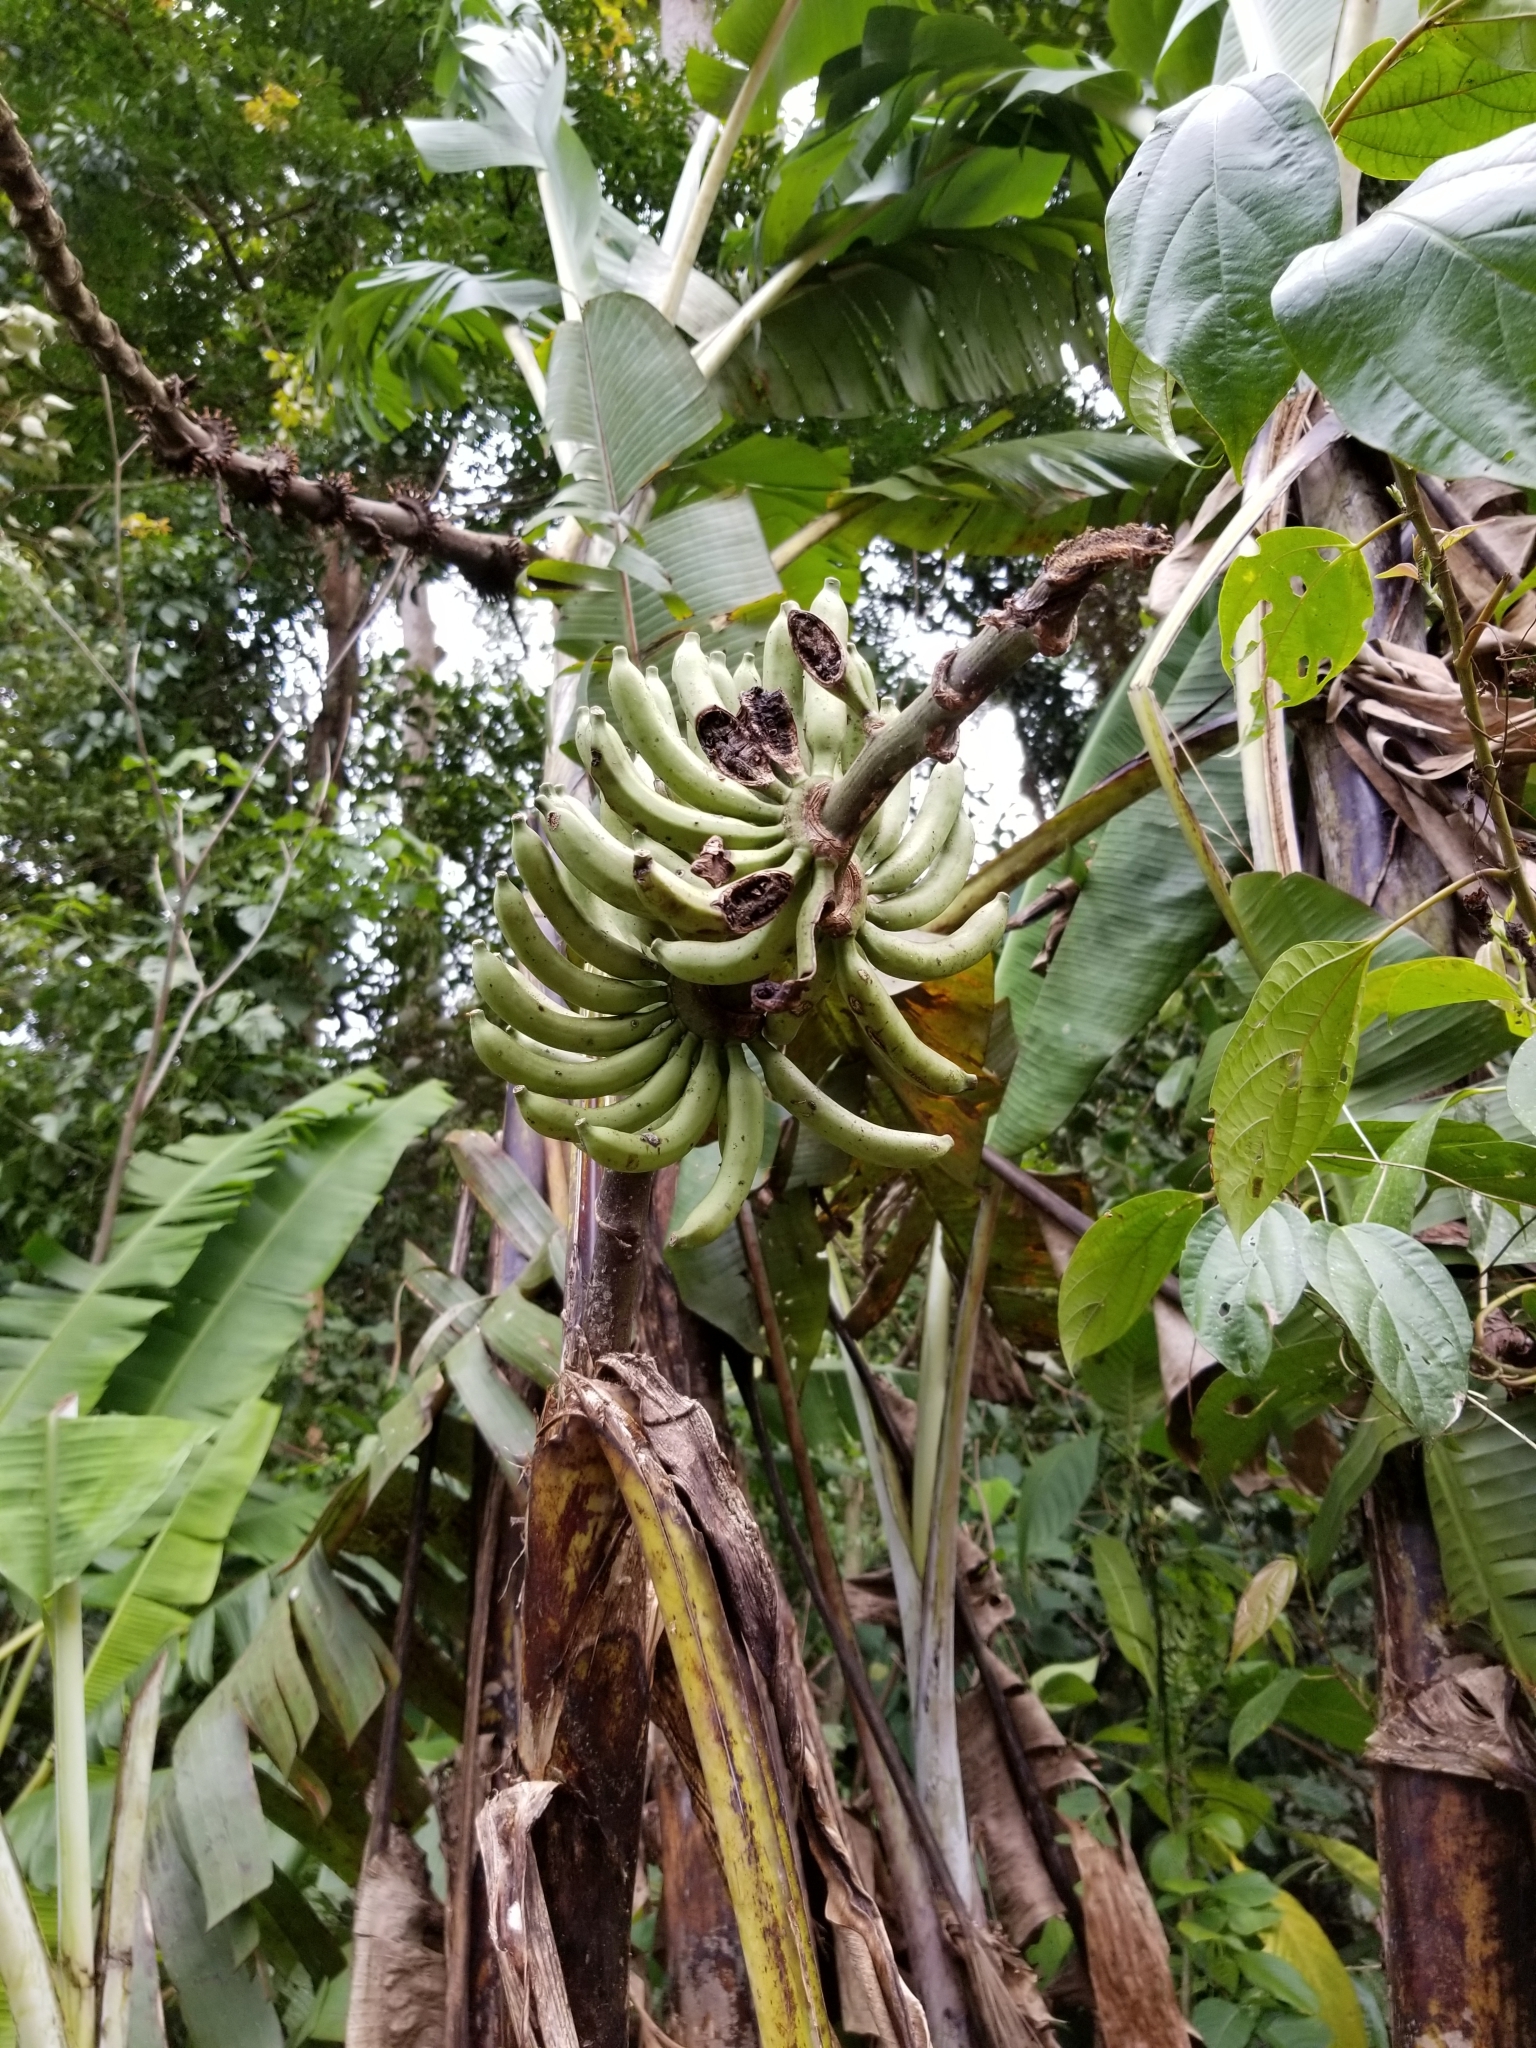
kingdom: Plantae
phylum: Tracheophyta
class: Liliopsida
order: Zingiberales
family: Musaceae
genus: Musa
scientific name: Musa acuminata
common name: Edible banana
